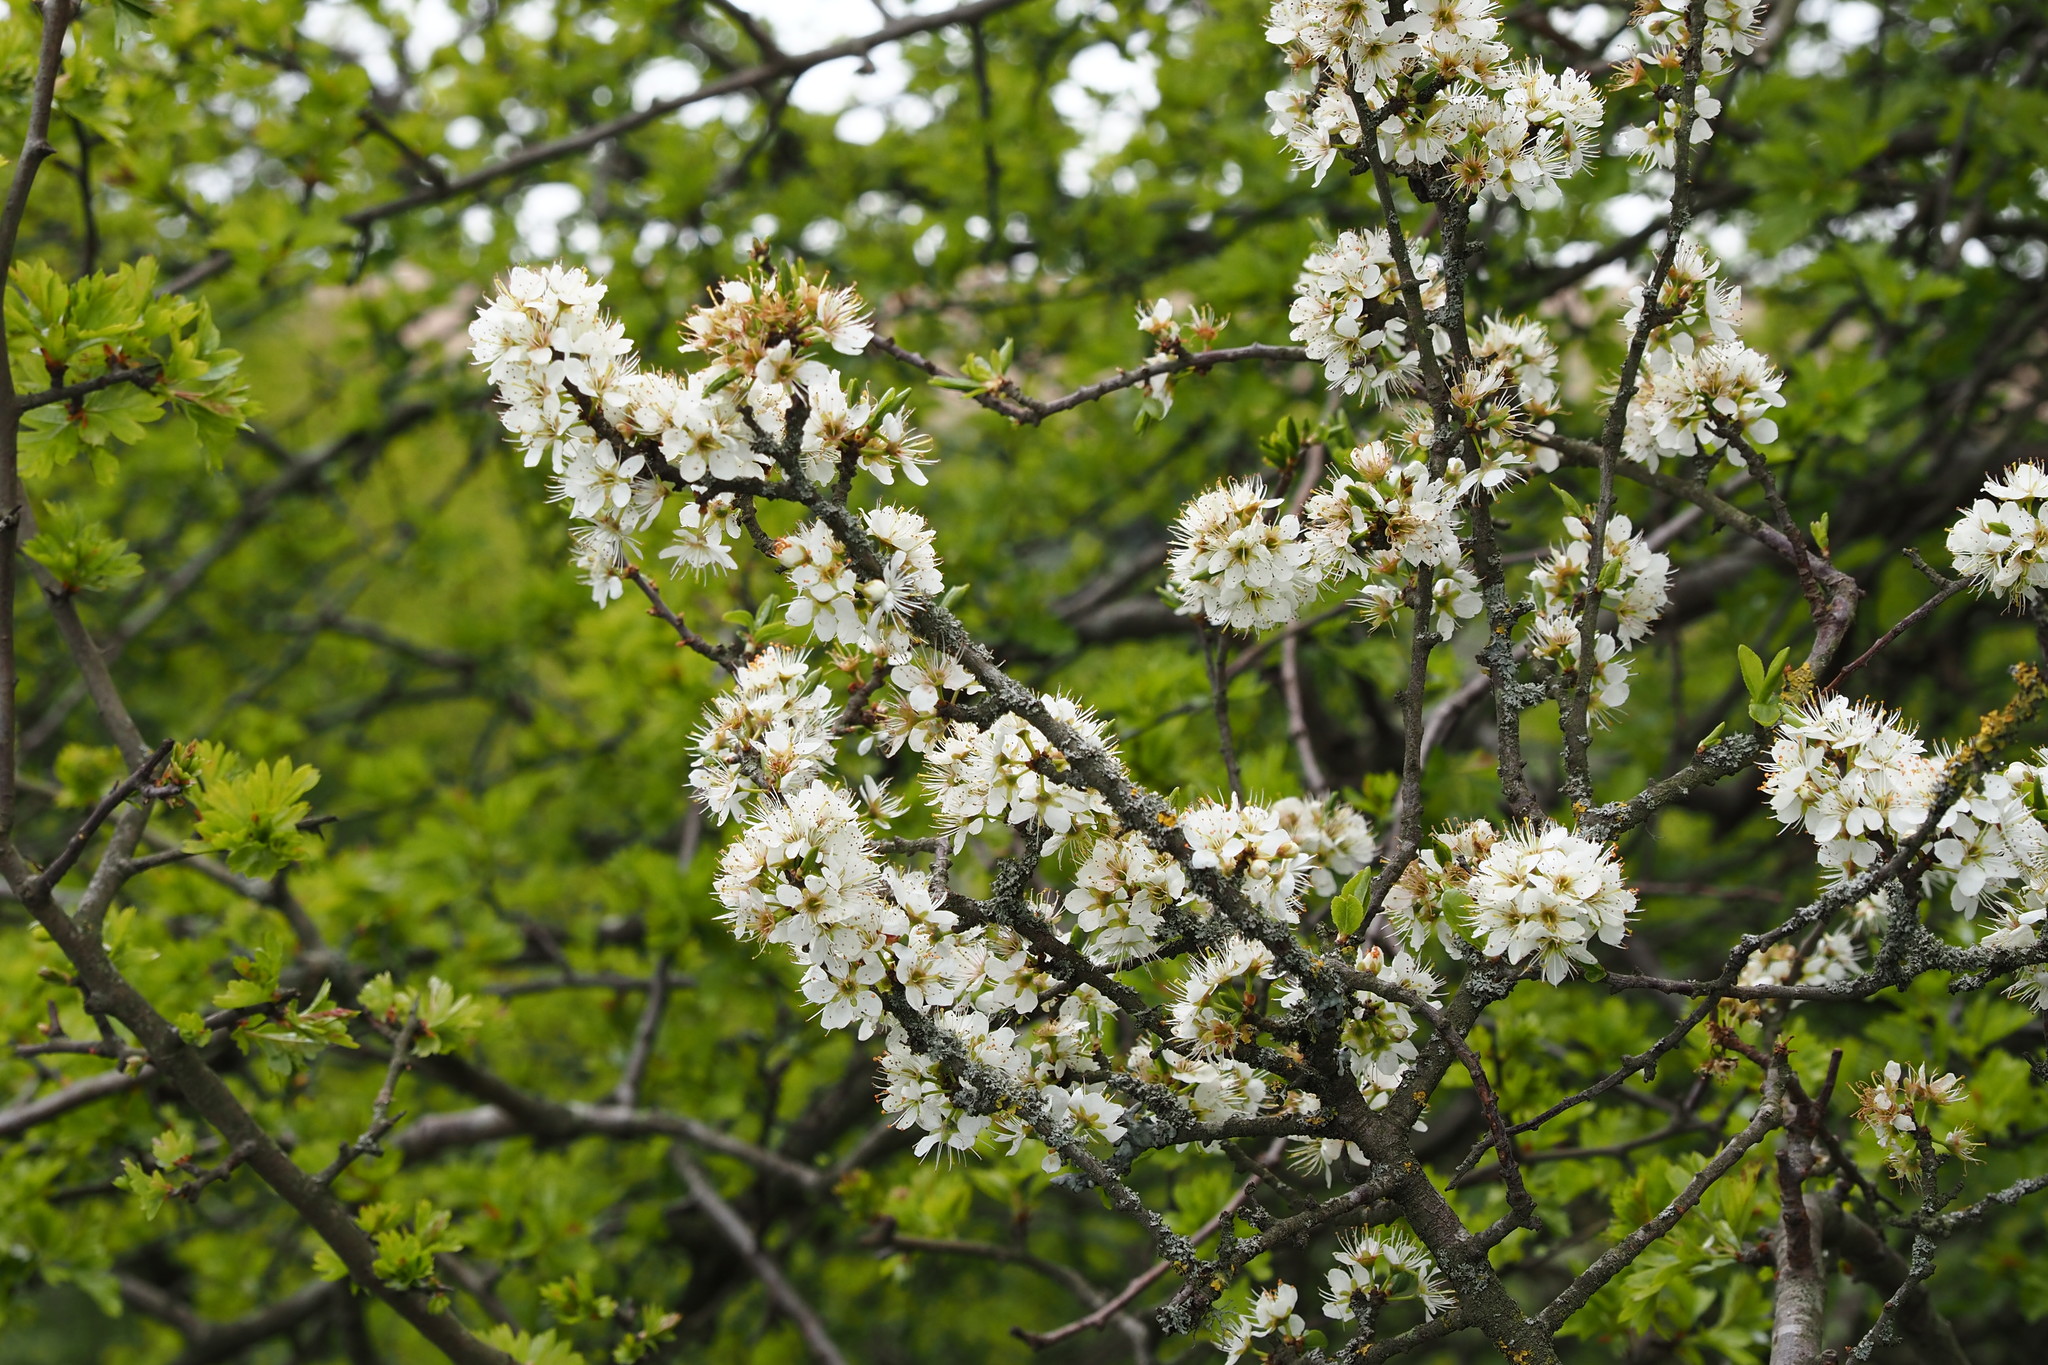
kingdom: Plantae
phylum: Tracheophyta
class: Magnoliopsida
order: Rosales
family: Rosaceae
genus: Prunus
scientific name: Prunus spinosa
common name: Blackthorn
